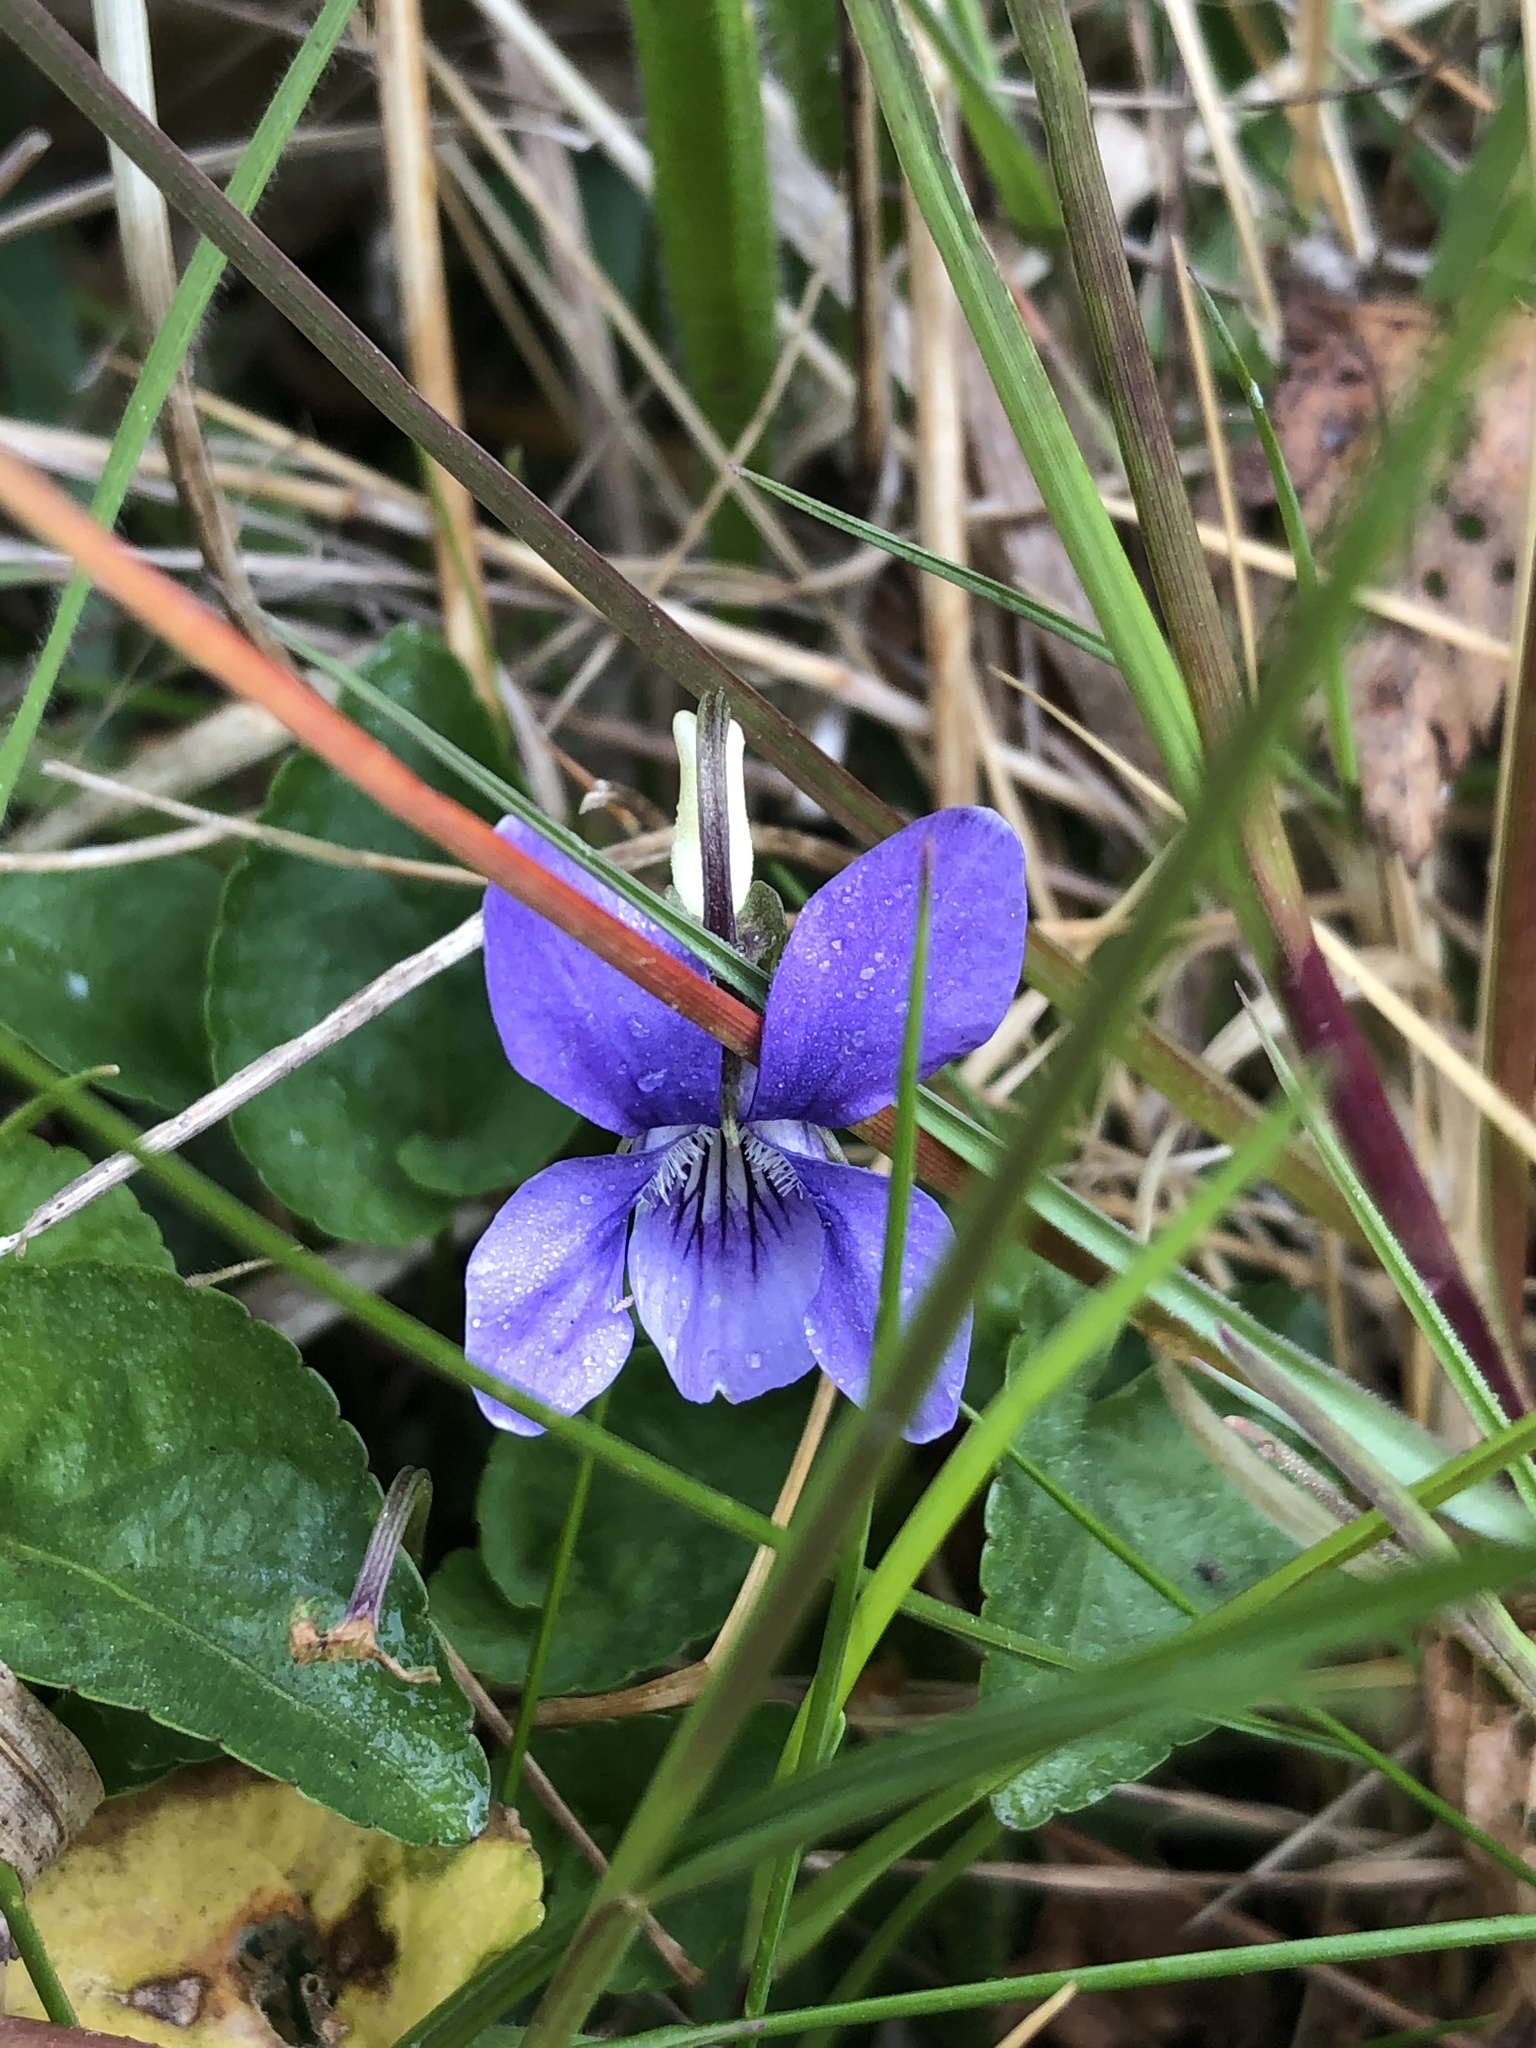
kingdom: Plantae
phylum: Tracheophyta
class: Magnoliopsida
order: Malpighiales
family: Violaceae
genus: Viola
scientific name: Viola riviniana
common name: Common dog-violet
